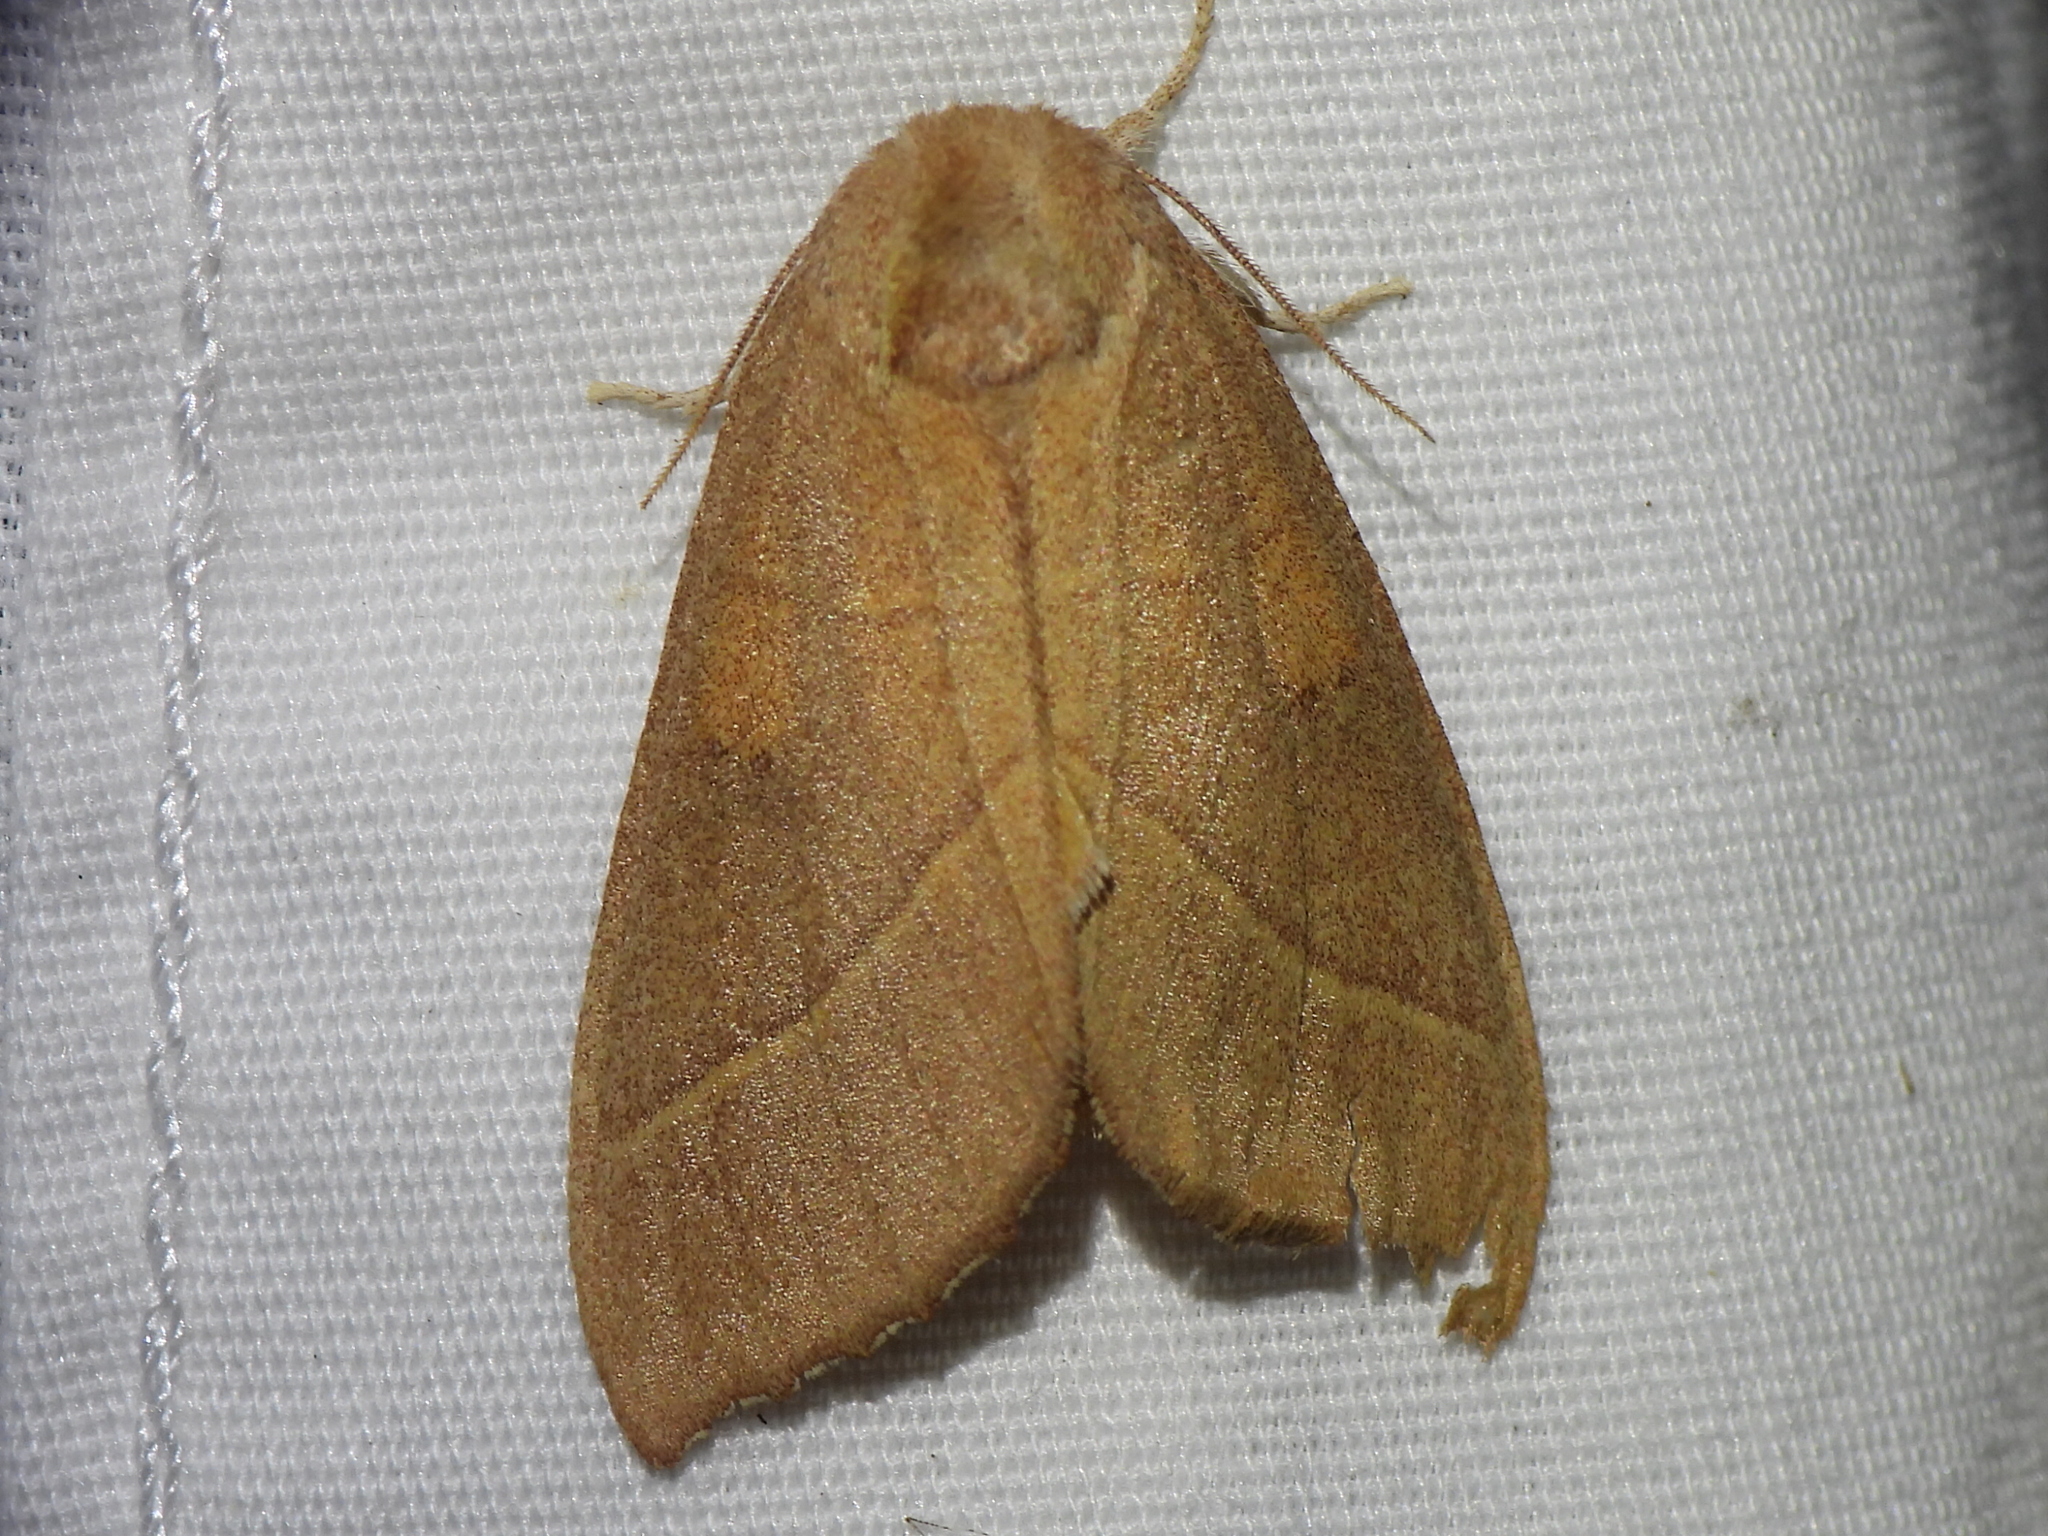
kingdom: Animalia
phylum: Arthropoda
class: Insecta
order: Lepidoptera
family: Notodontidae
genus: Nadata
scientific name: Nadata gibbosa
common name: White-dotted prominent
